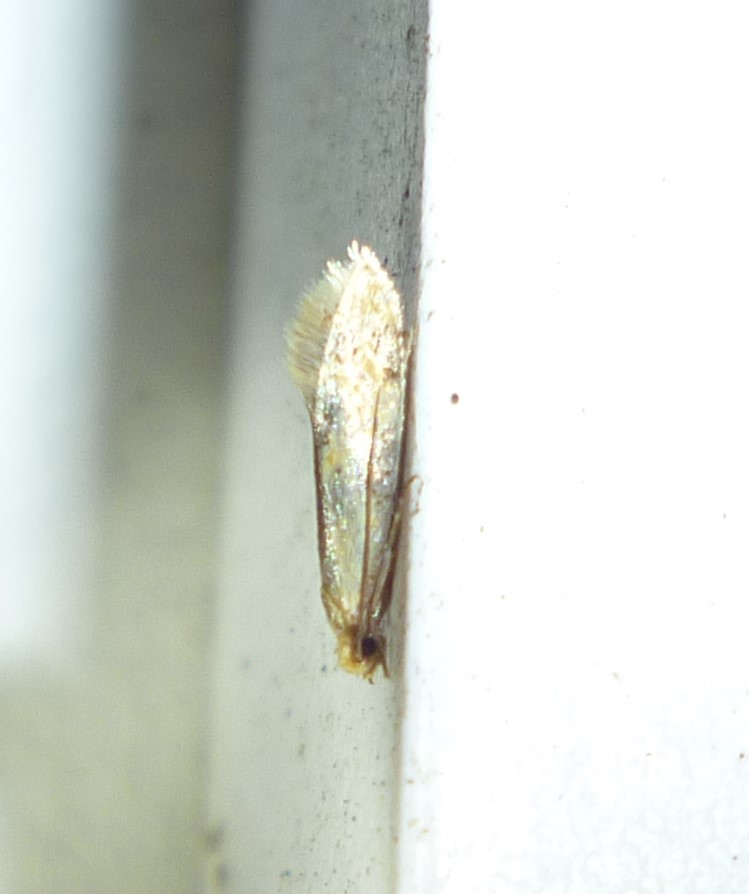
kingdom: Animalia
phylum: Arthropoda
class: Insecta
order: Lepidoptera
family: Meessiidae
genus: Hybroma
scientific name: Hybroma servulella
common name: Yellow wave moth
